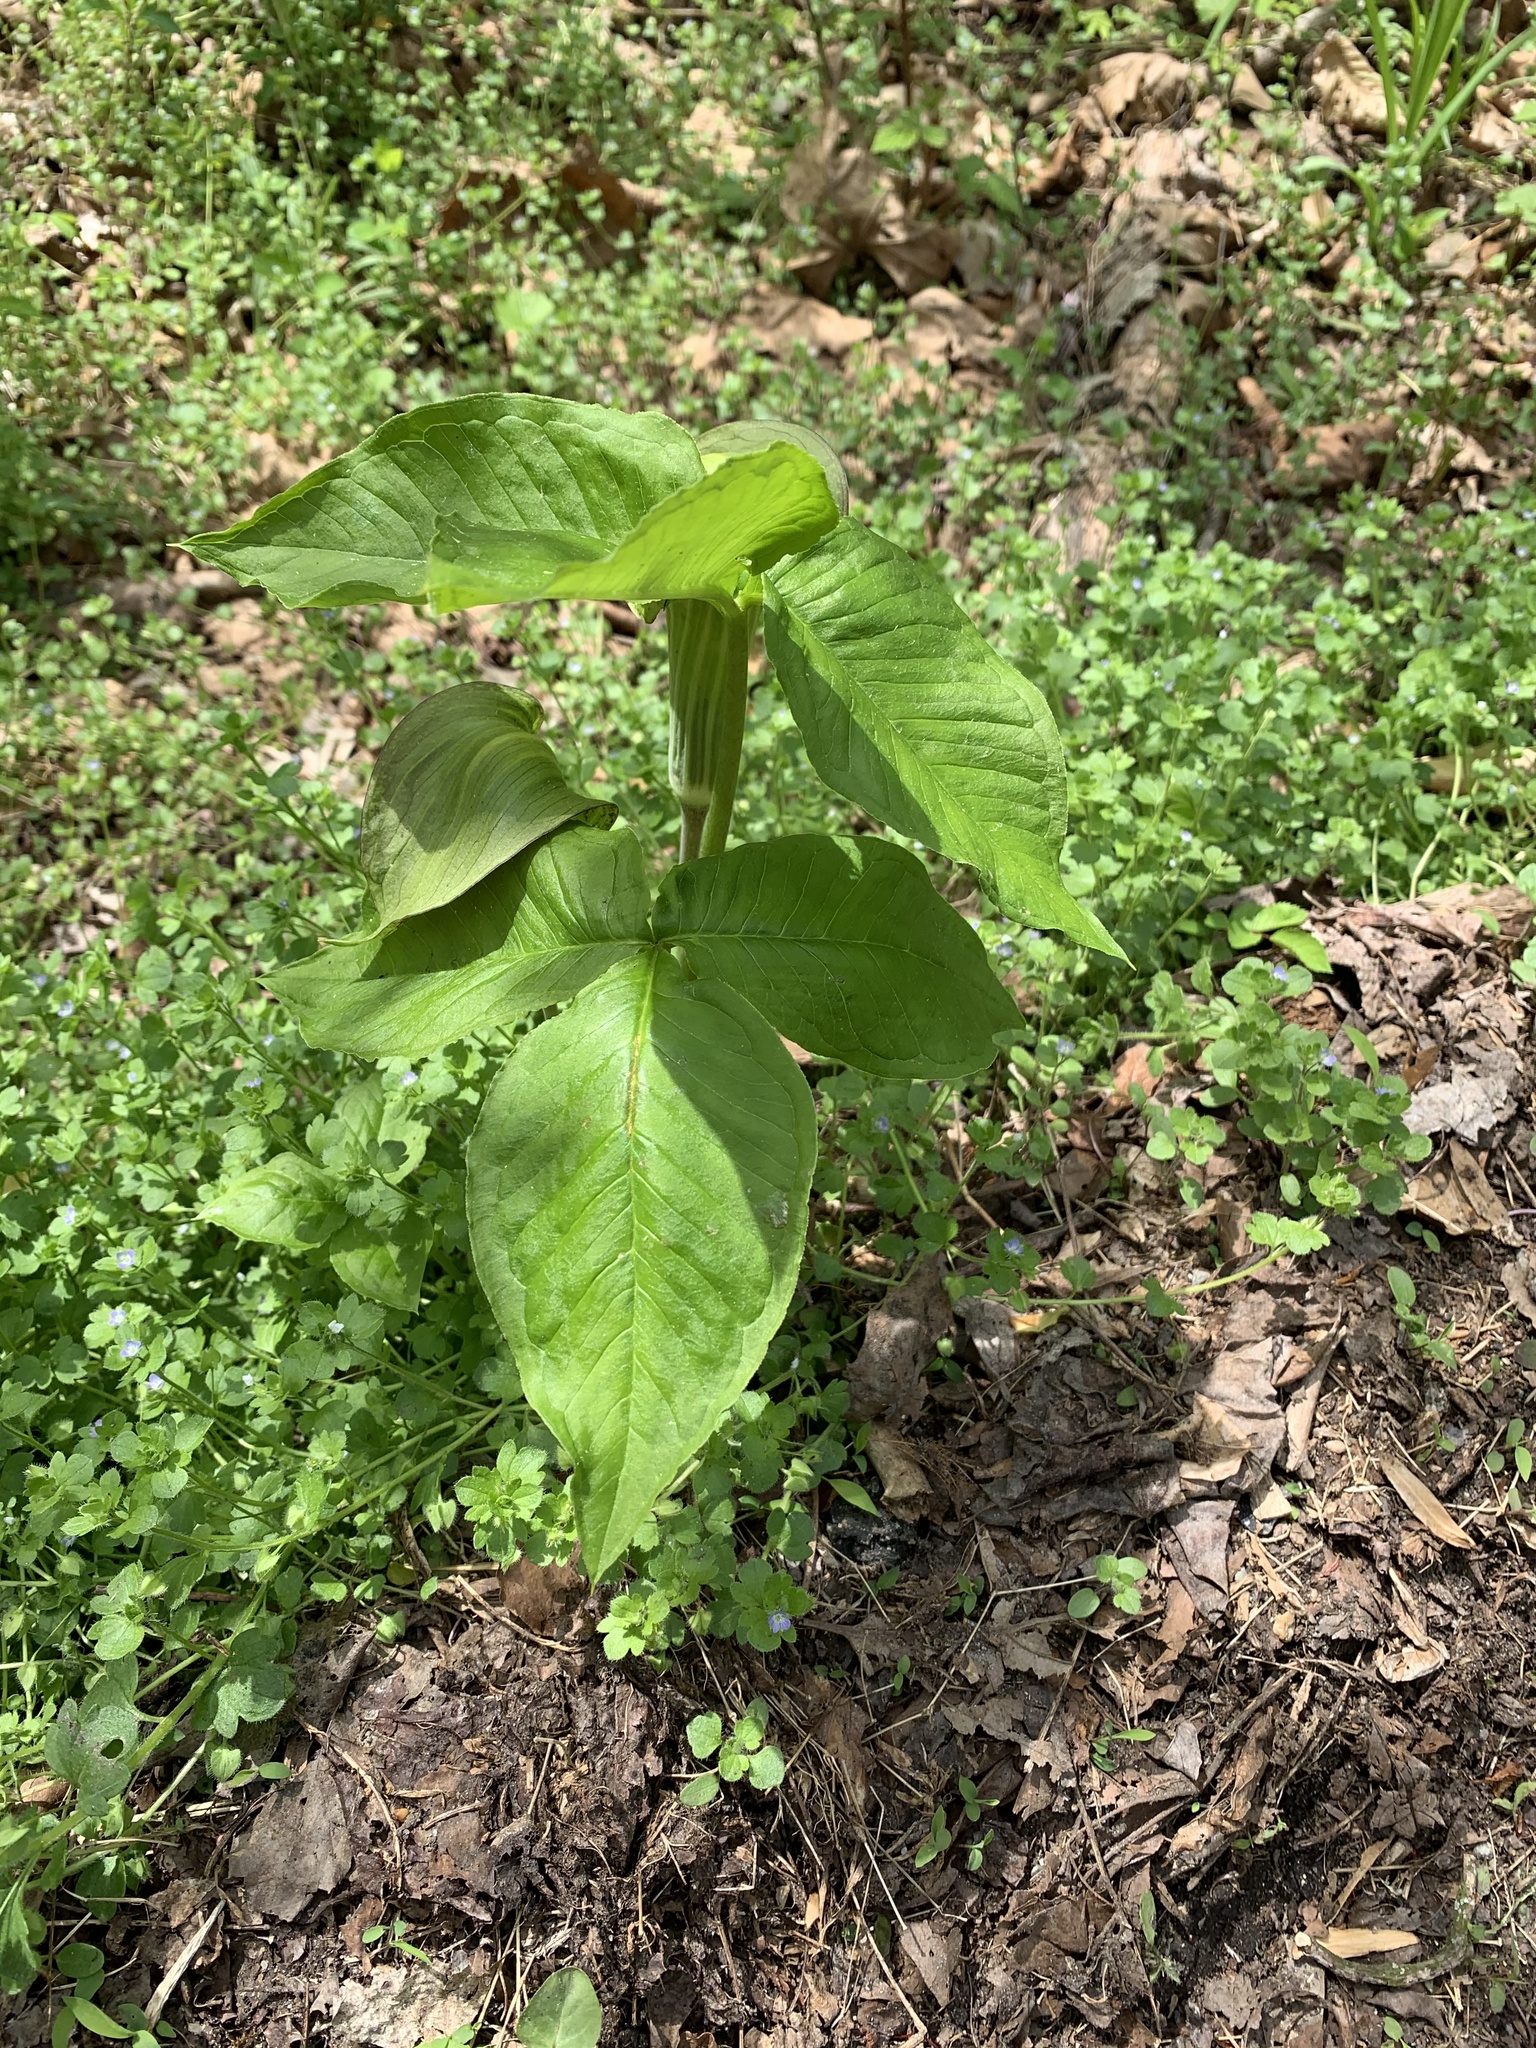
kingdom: Plantae
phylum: Tracheophyta
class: Liliopsida
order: Alismatales
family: Araceae
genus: Arisaema
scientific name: Arisaema triphyllum
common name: Jack-in-the-pulpit
